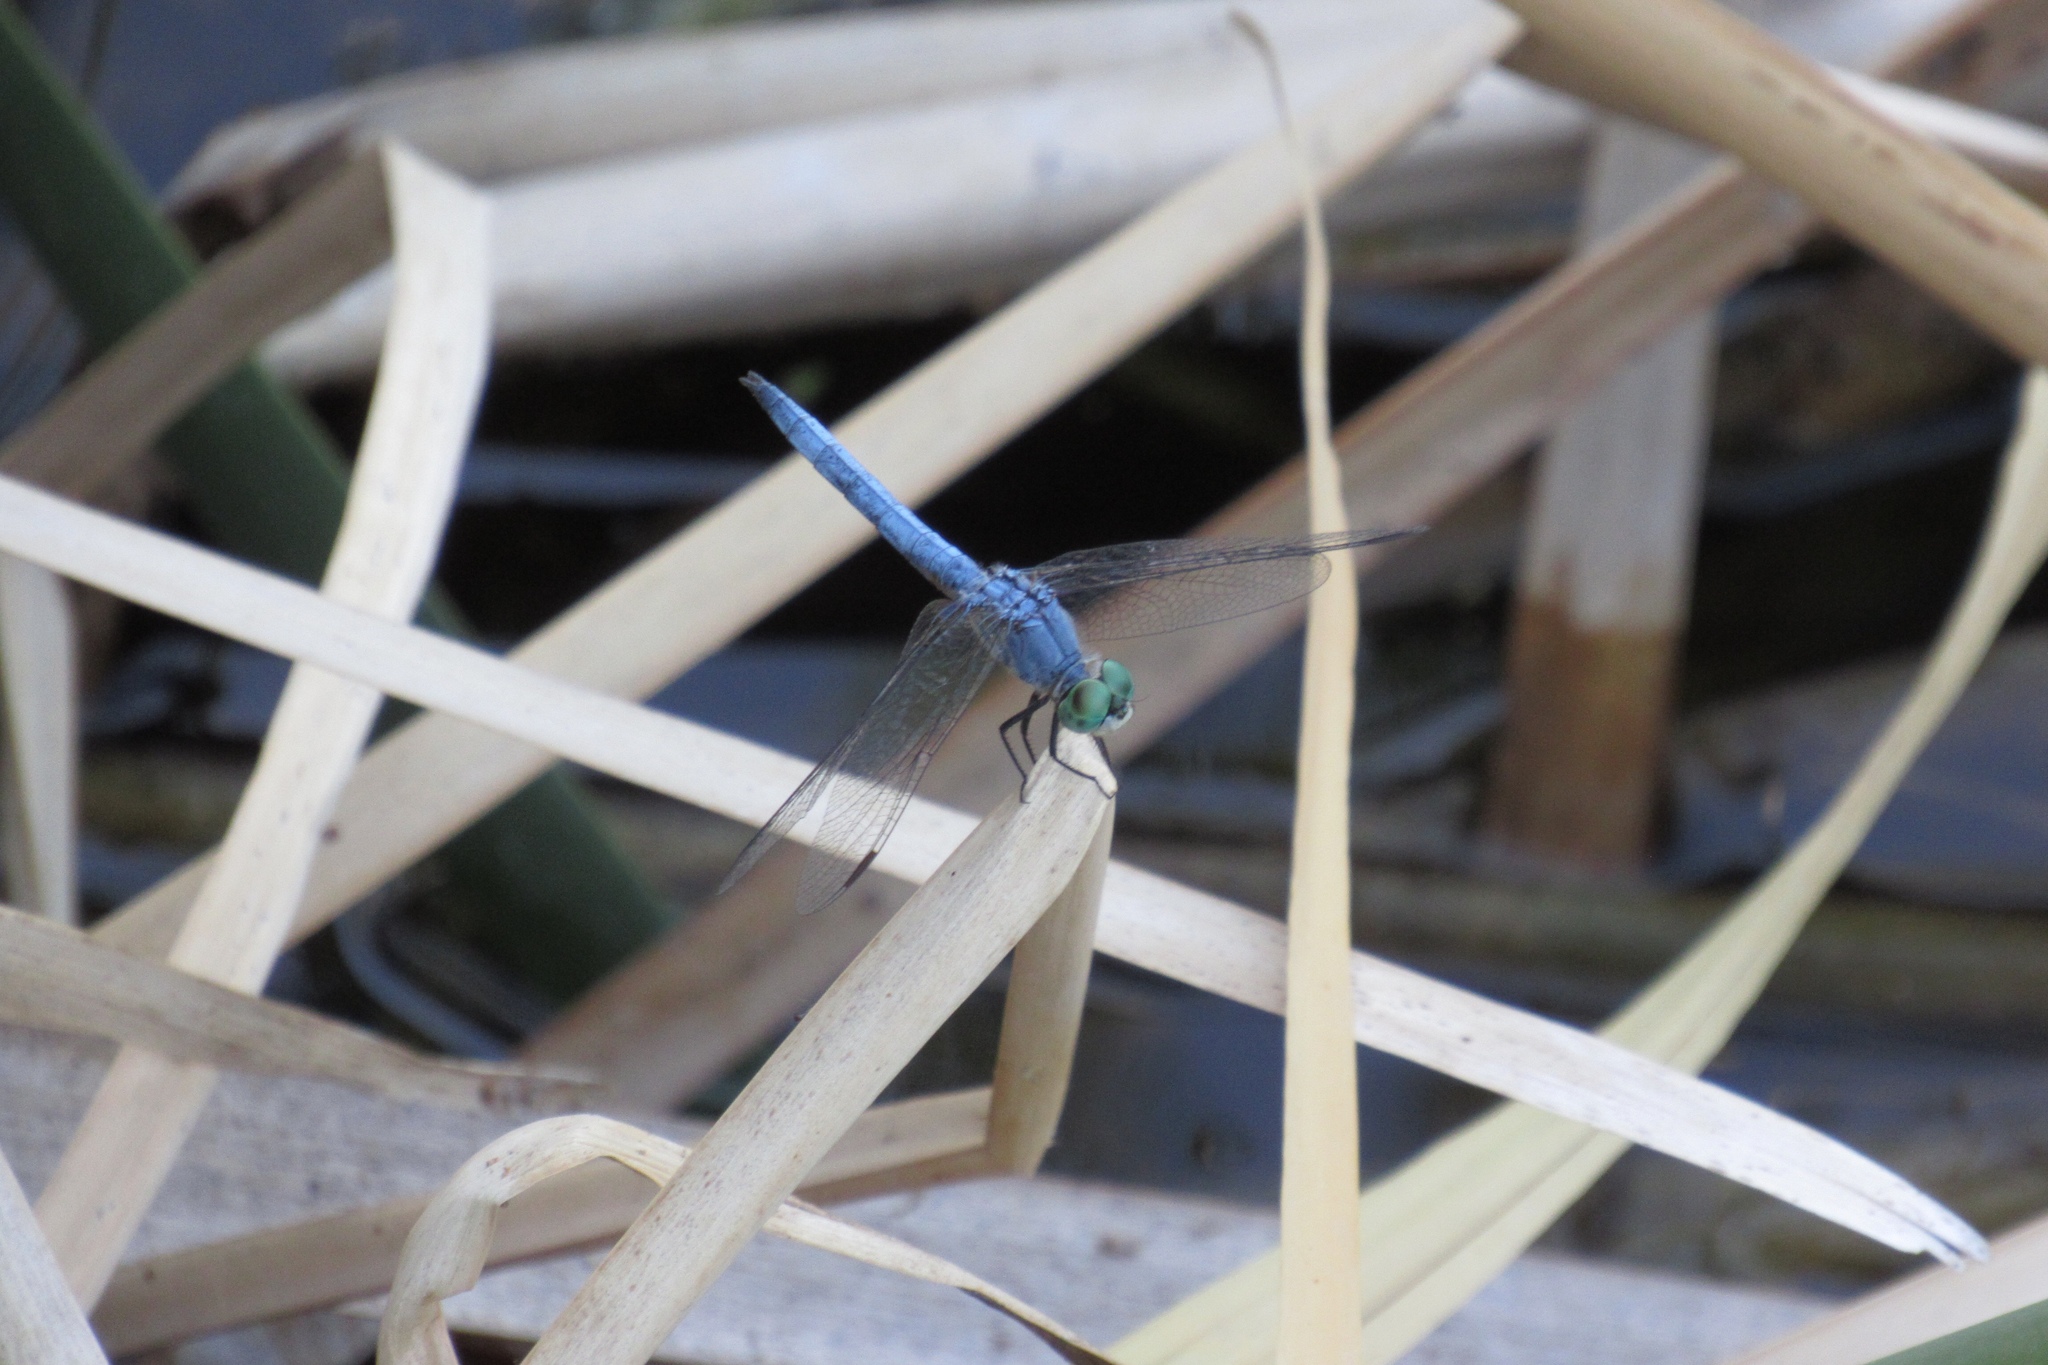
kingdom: Animalia
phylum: Arthropoda
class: Insecta
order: Odonata
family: Libellulidae
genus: Pachydiplax
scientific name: Pachydiplax longipennis
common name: Blue dasher
